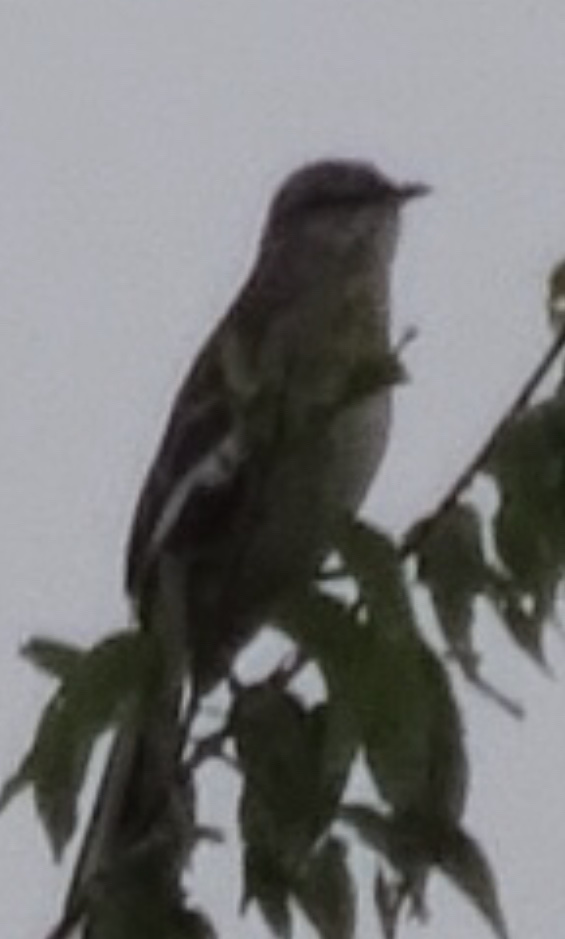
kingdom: Animalia
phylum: Chordata
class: Aves
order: Passeriformes
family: Mimidae
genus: Mimus
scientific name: Mimus polyglottos
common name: Northern mockingbird
